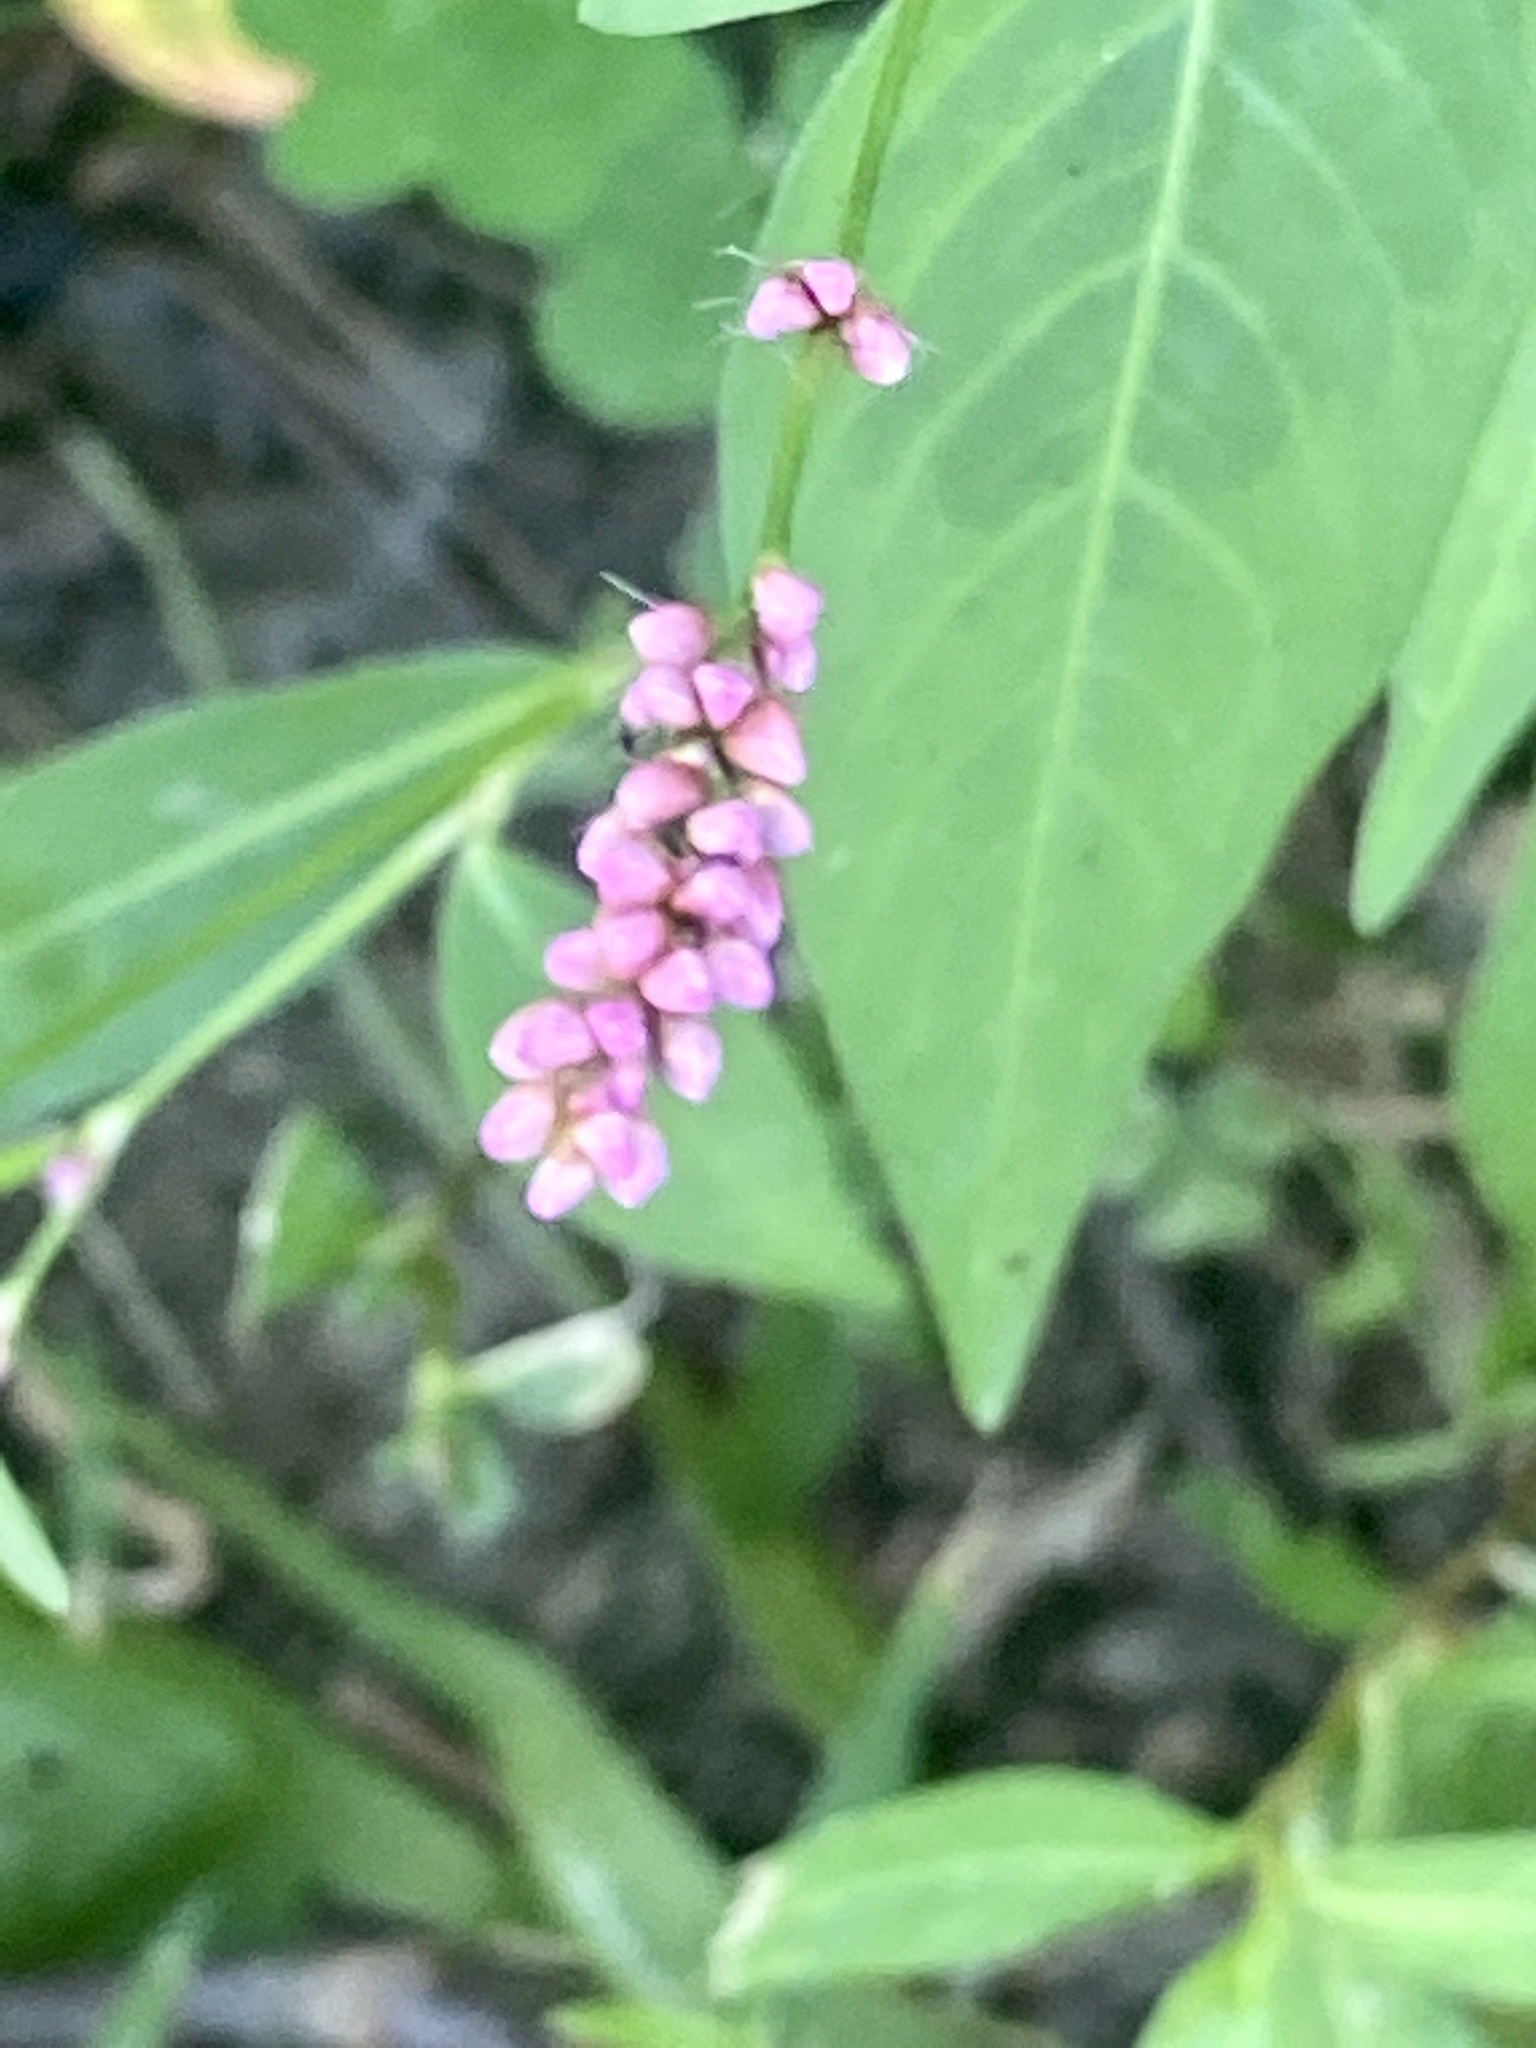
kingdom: Plantae
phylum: Tracheophyta
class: Magnoliopsida
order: Caryophyllales
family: Polygonaceae
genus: Persicaria
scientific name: Persicaria longiseta
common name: Bristly lady's-thumb
